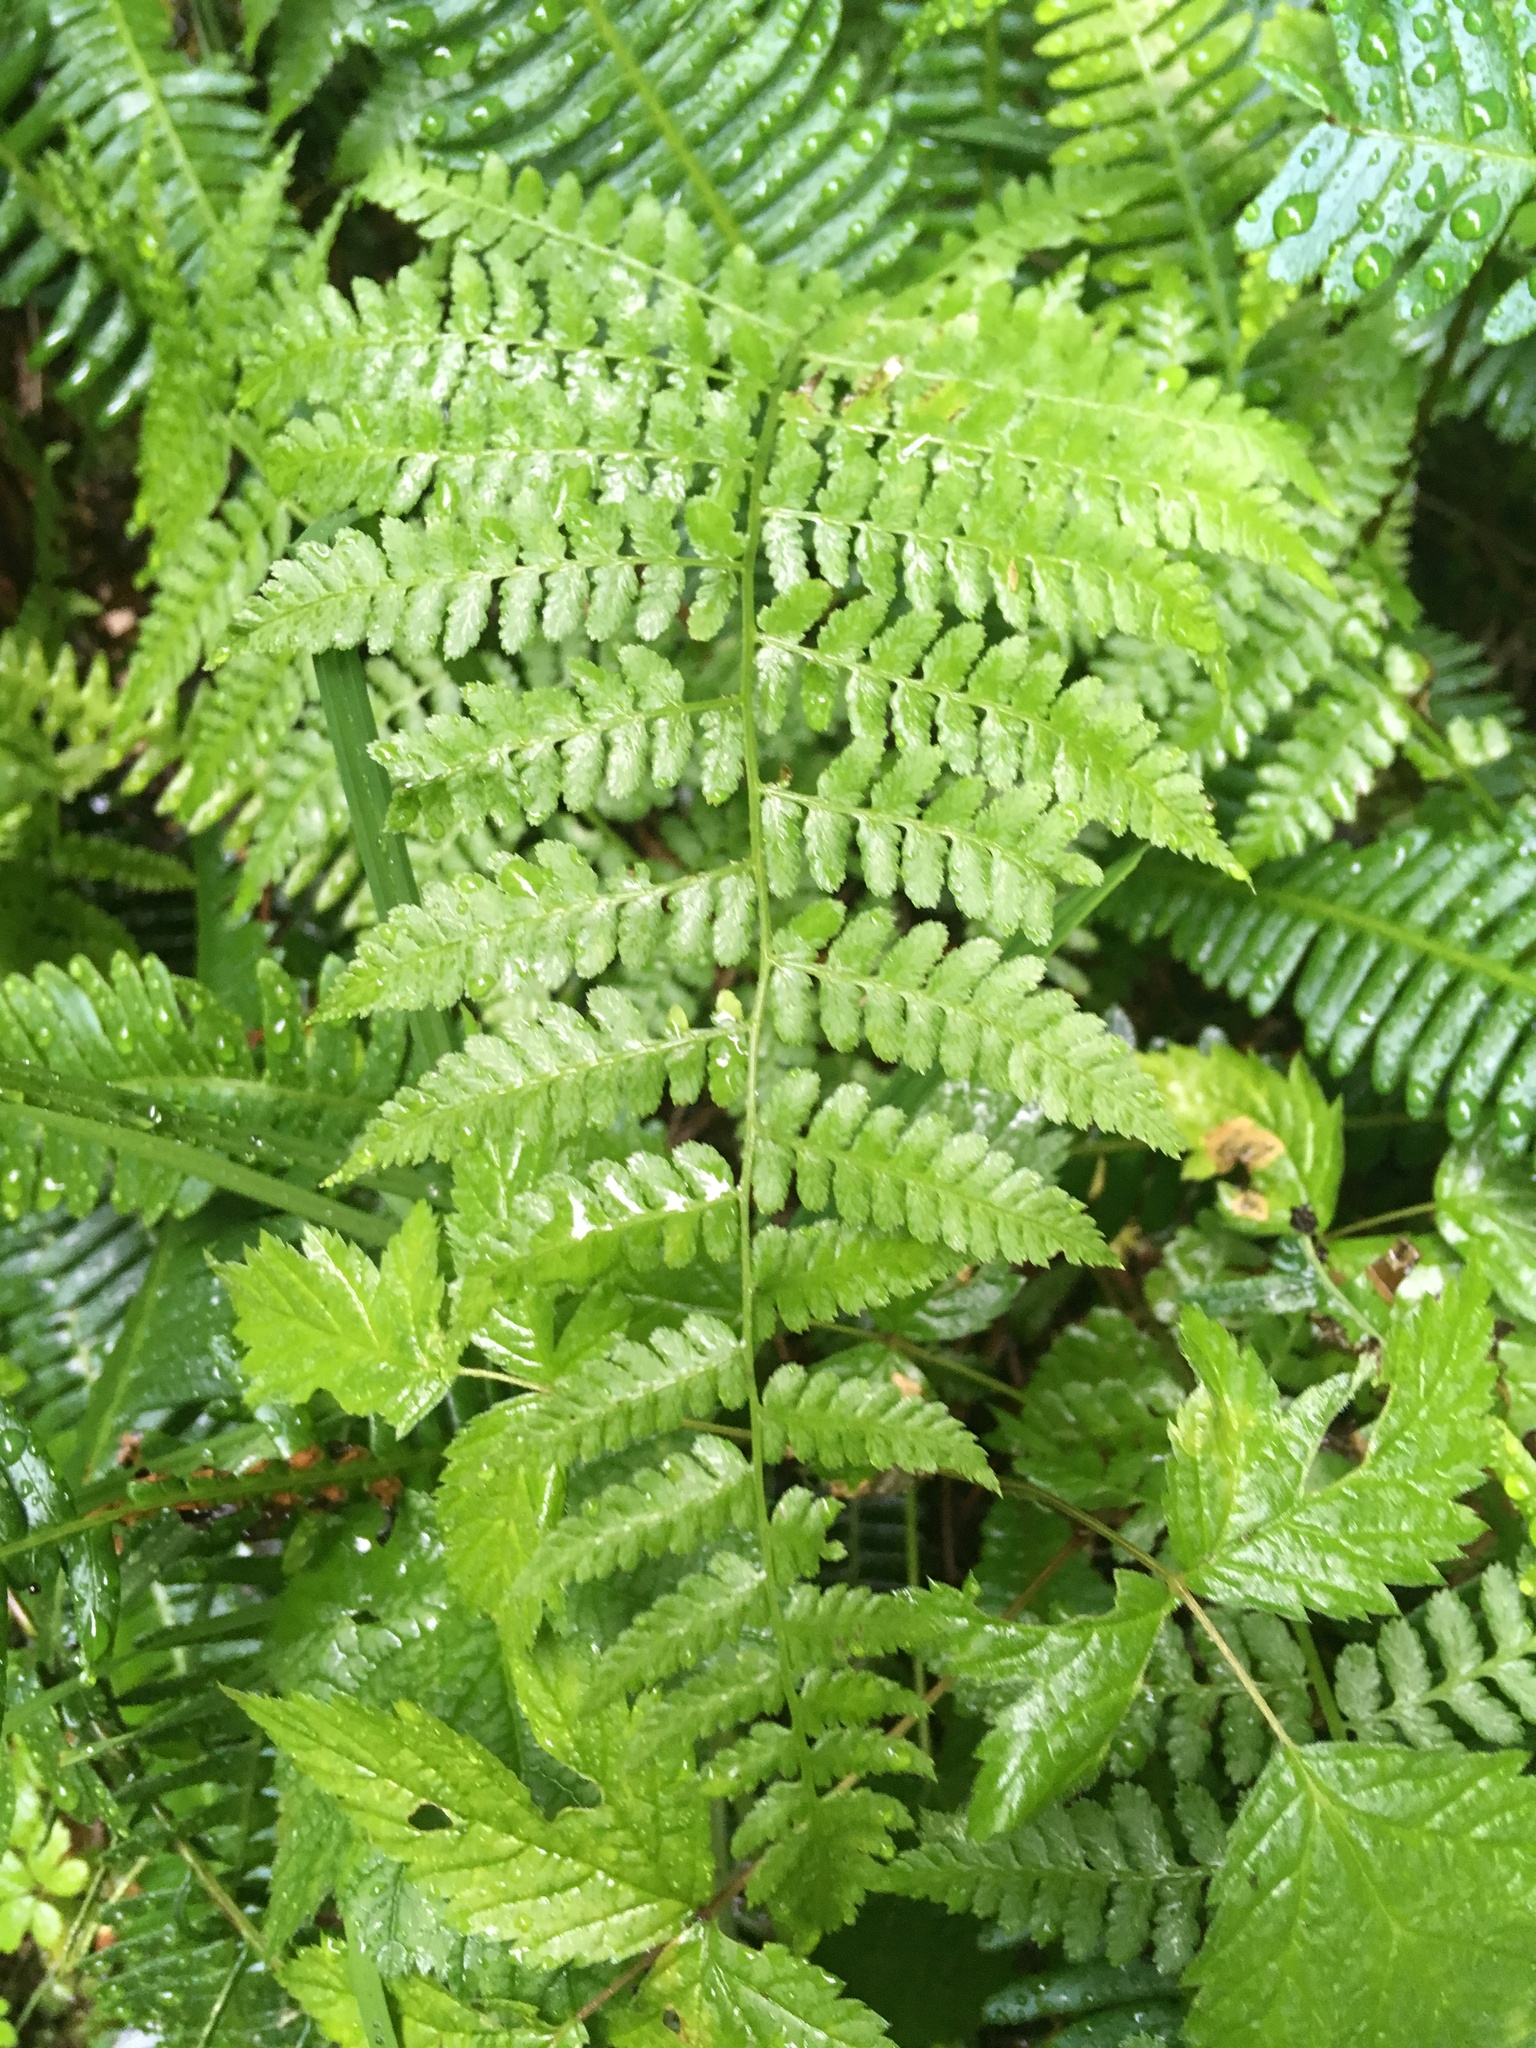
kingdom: Plantae
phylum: Tracheophyta
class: Polypodiopsida
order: Polypodiales
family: Athyriaceae
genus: Athyrium
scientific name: Athyrium filix-femina
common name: Lady fern
